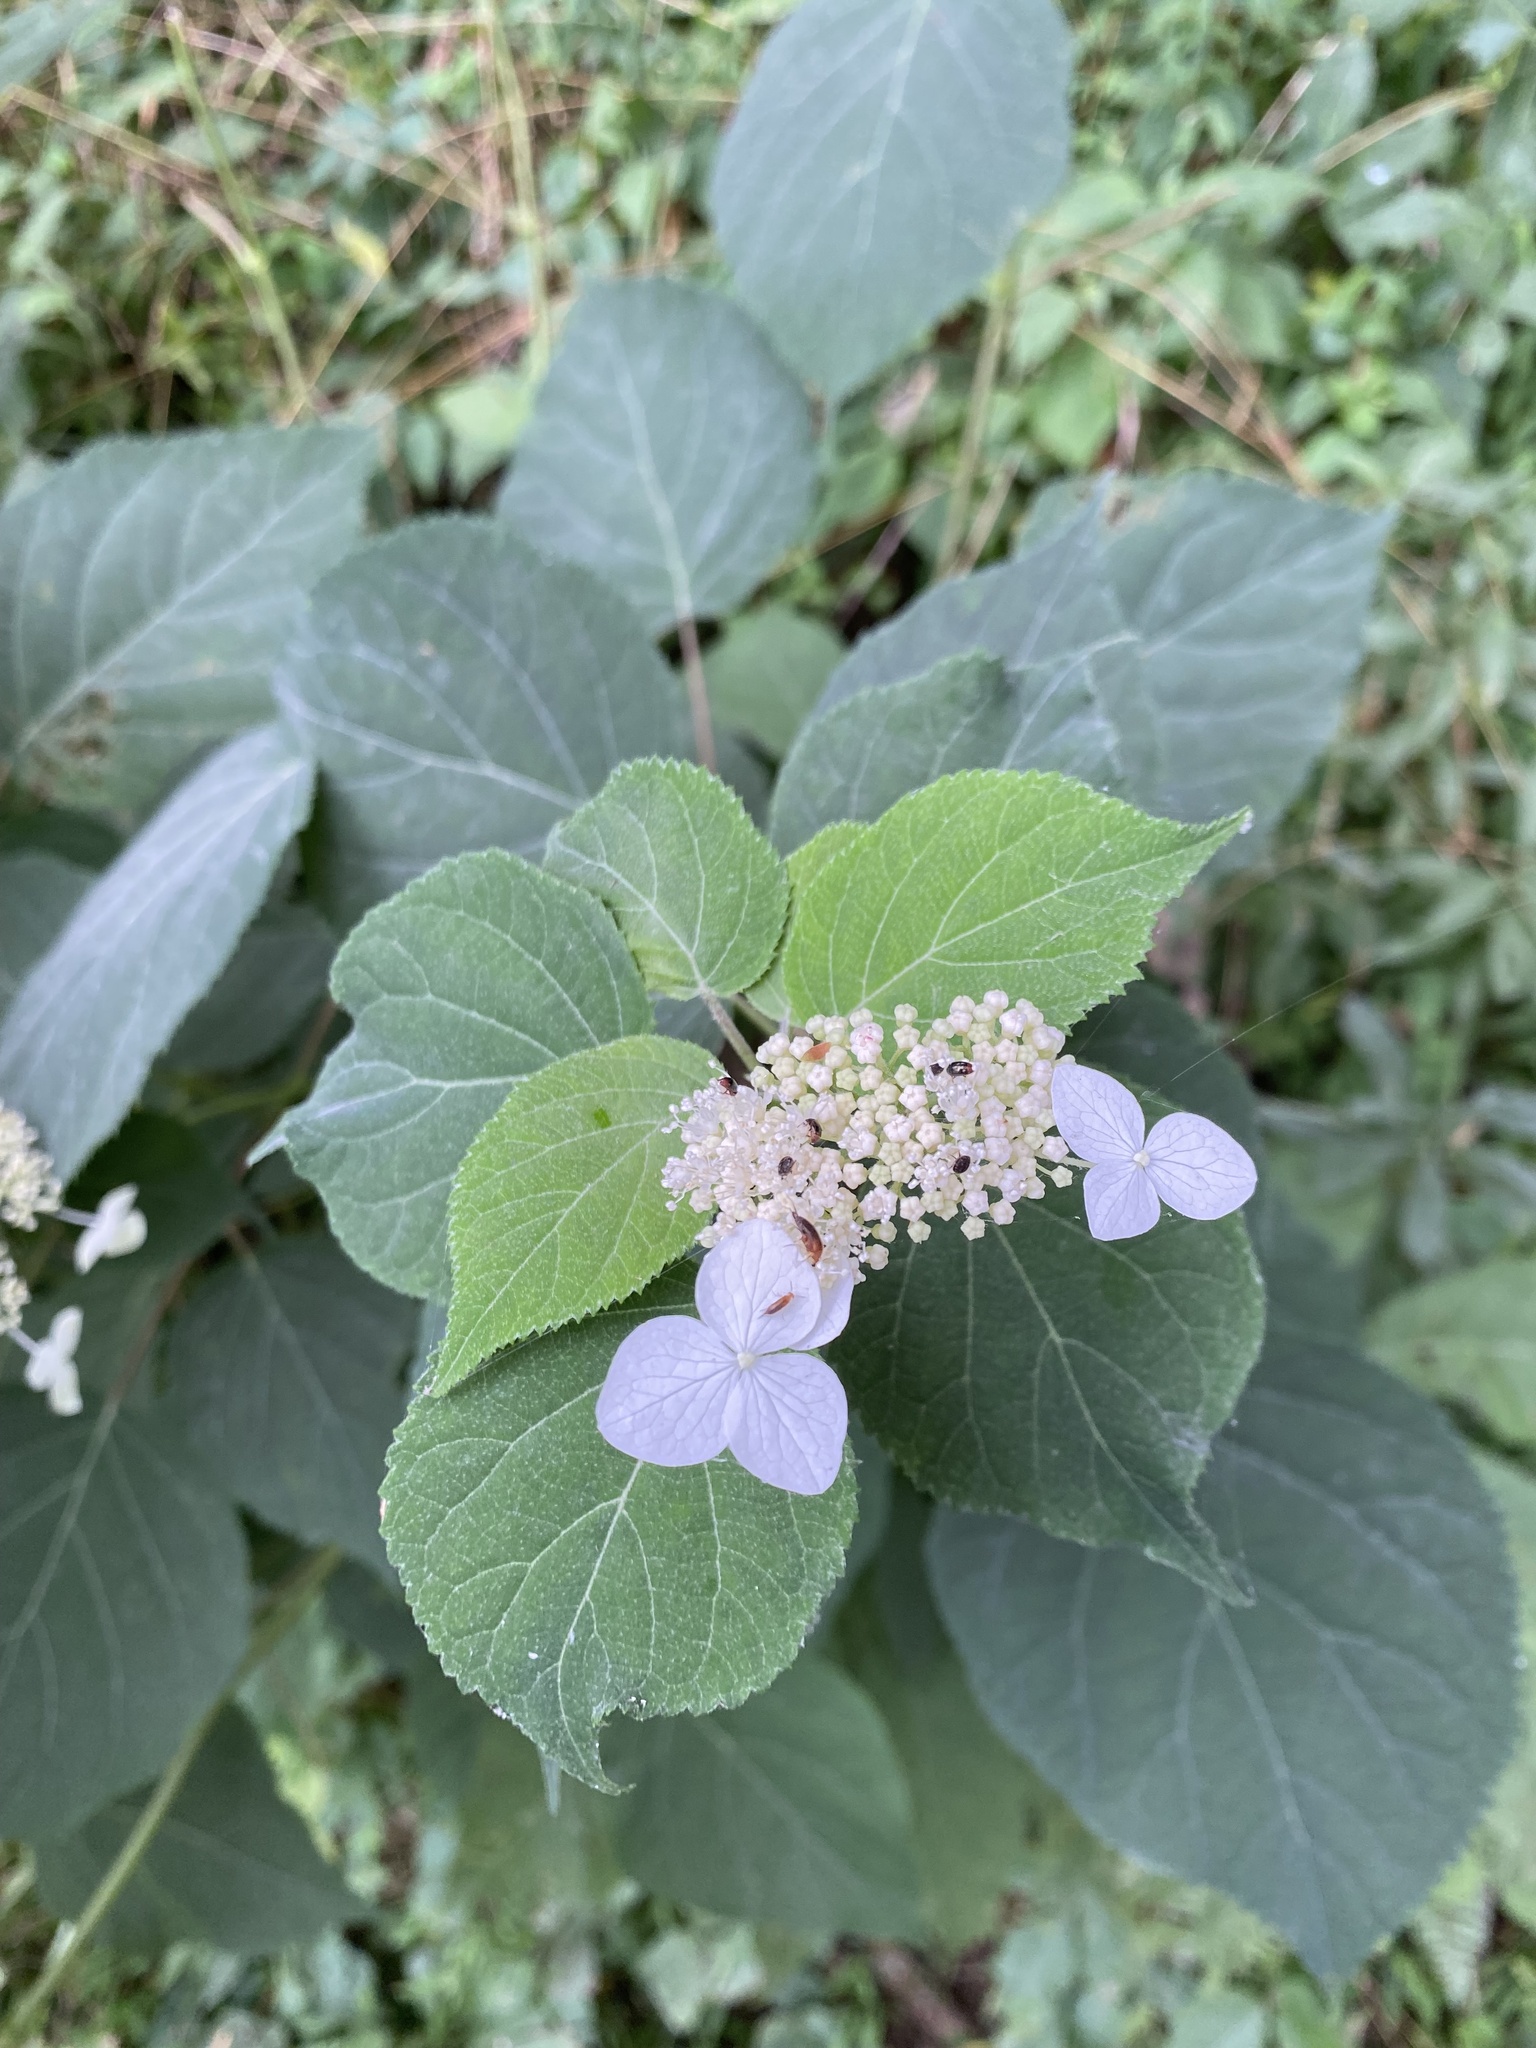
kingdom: Plantae
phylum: Tracheophyta
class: Magnoliopsida
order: Cornales
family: Hydrangeaceae
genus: Hydrangea
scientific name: Hydrangea arborescens
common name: Sevenbark
